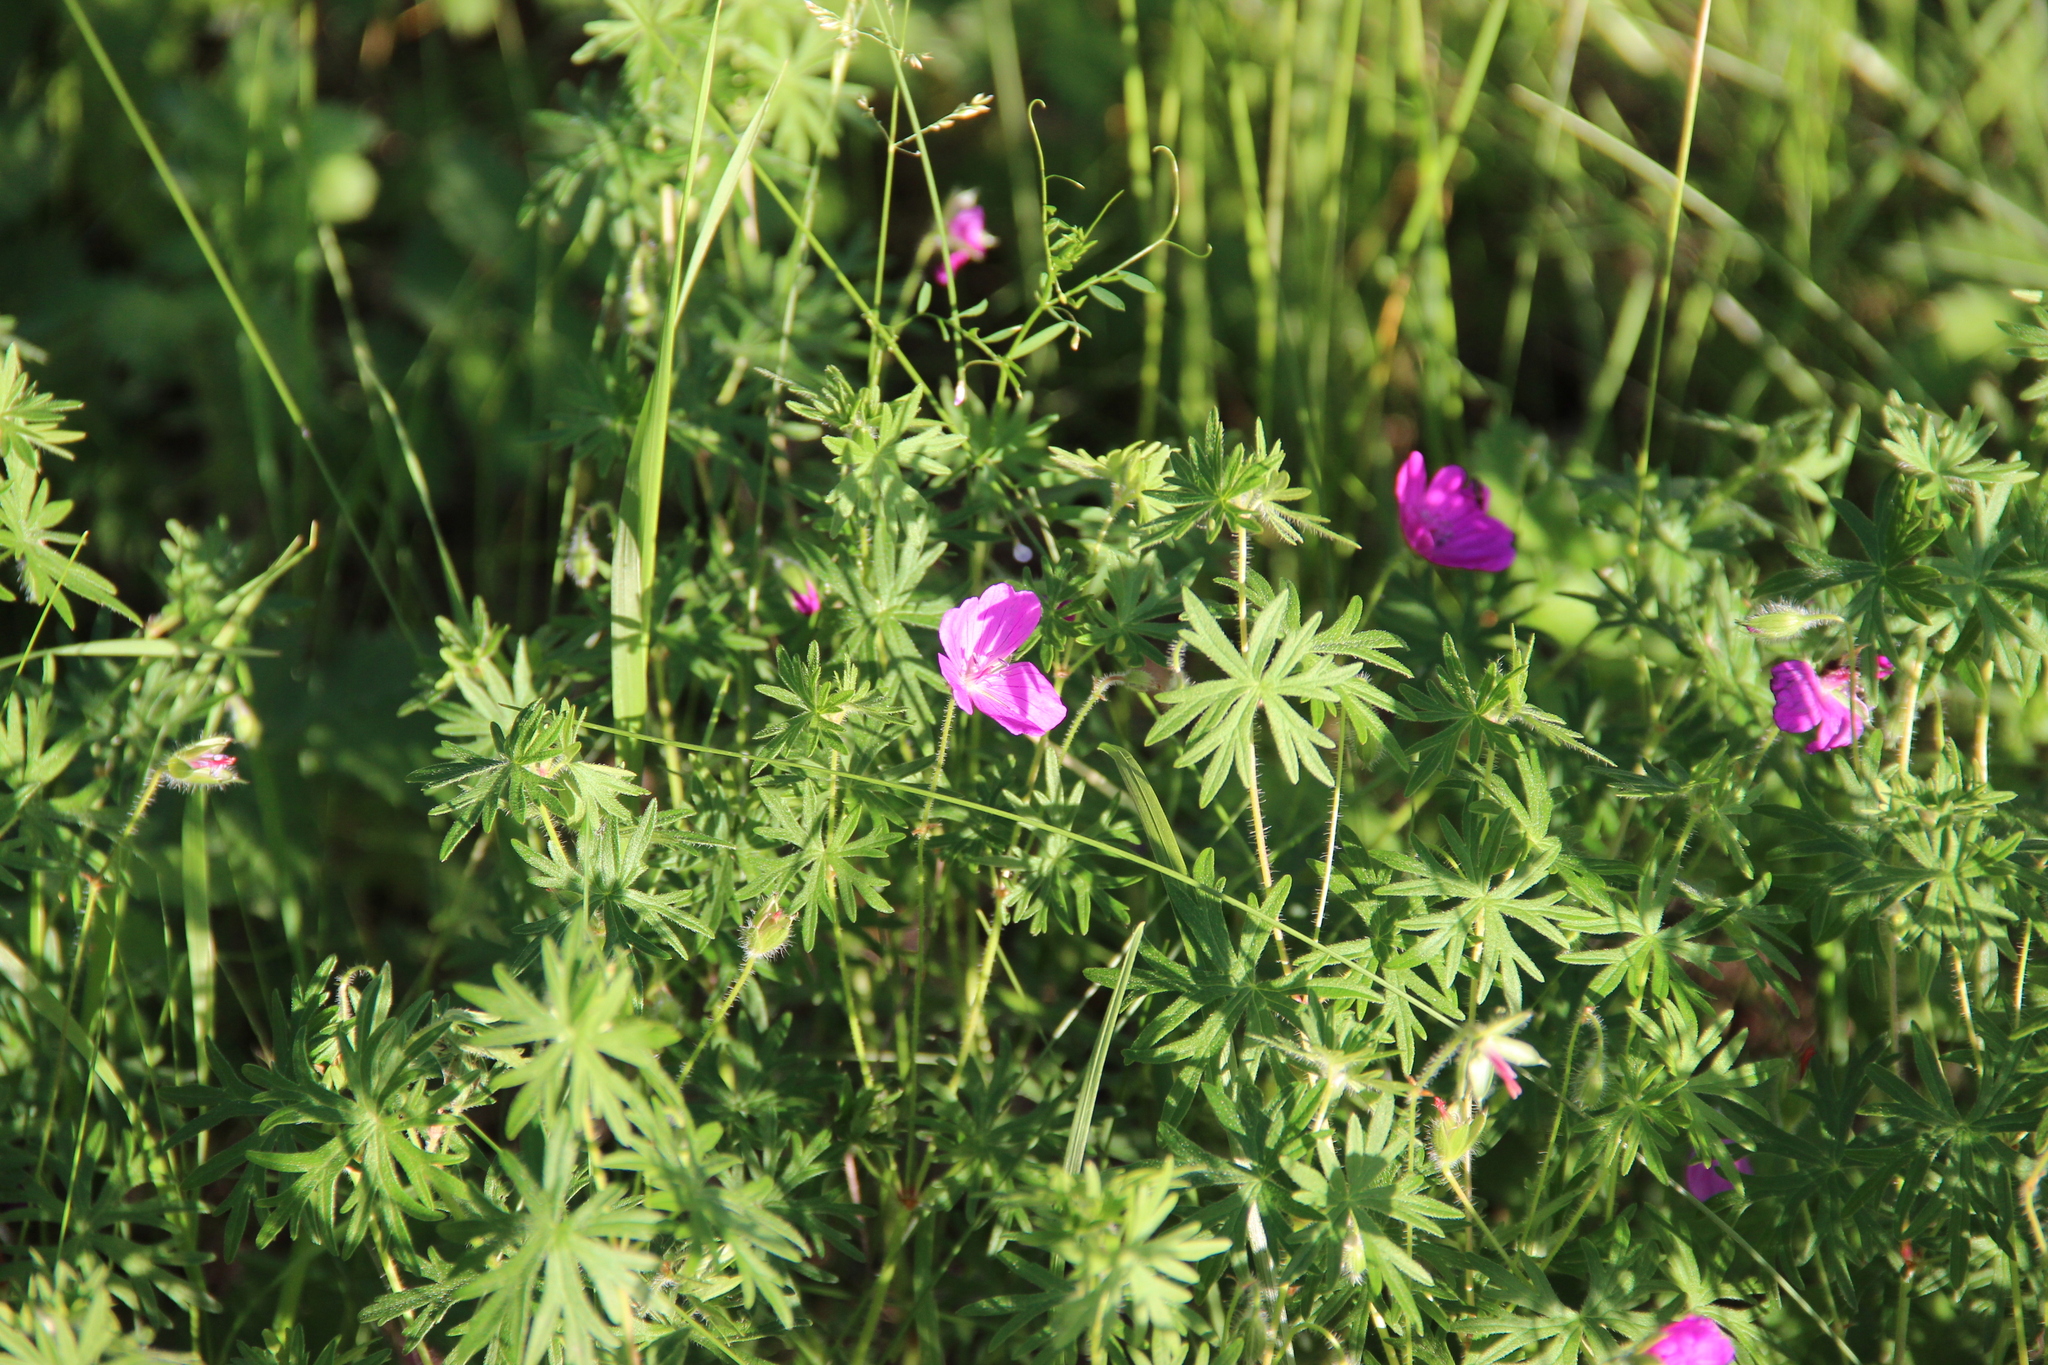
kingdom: Plantae
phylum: Tracheophyta
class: Magnoliopsida
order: Geraniales
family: Geraniaceae
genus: Geranium
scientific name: Geranium sanguineum
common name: Bloody crane's-bill
